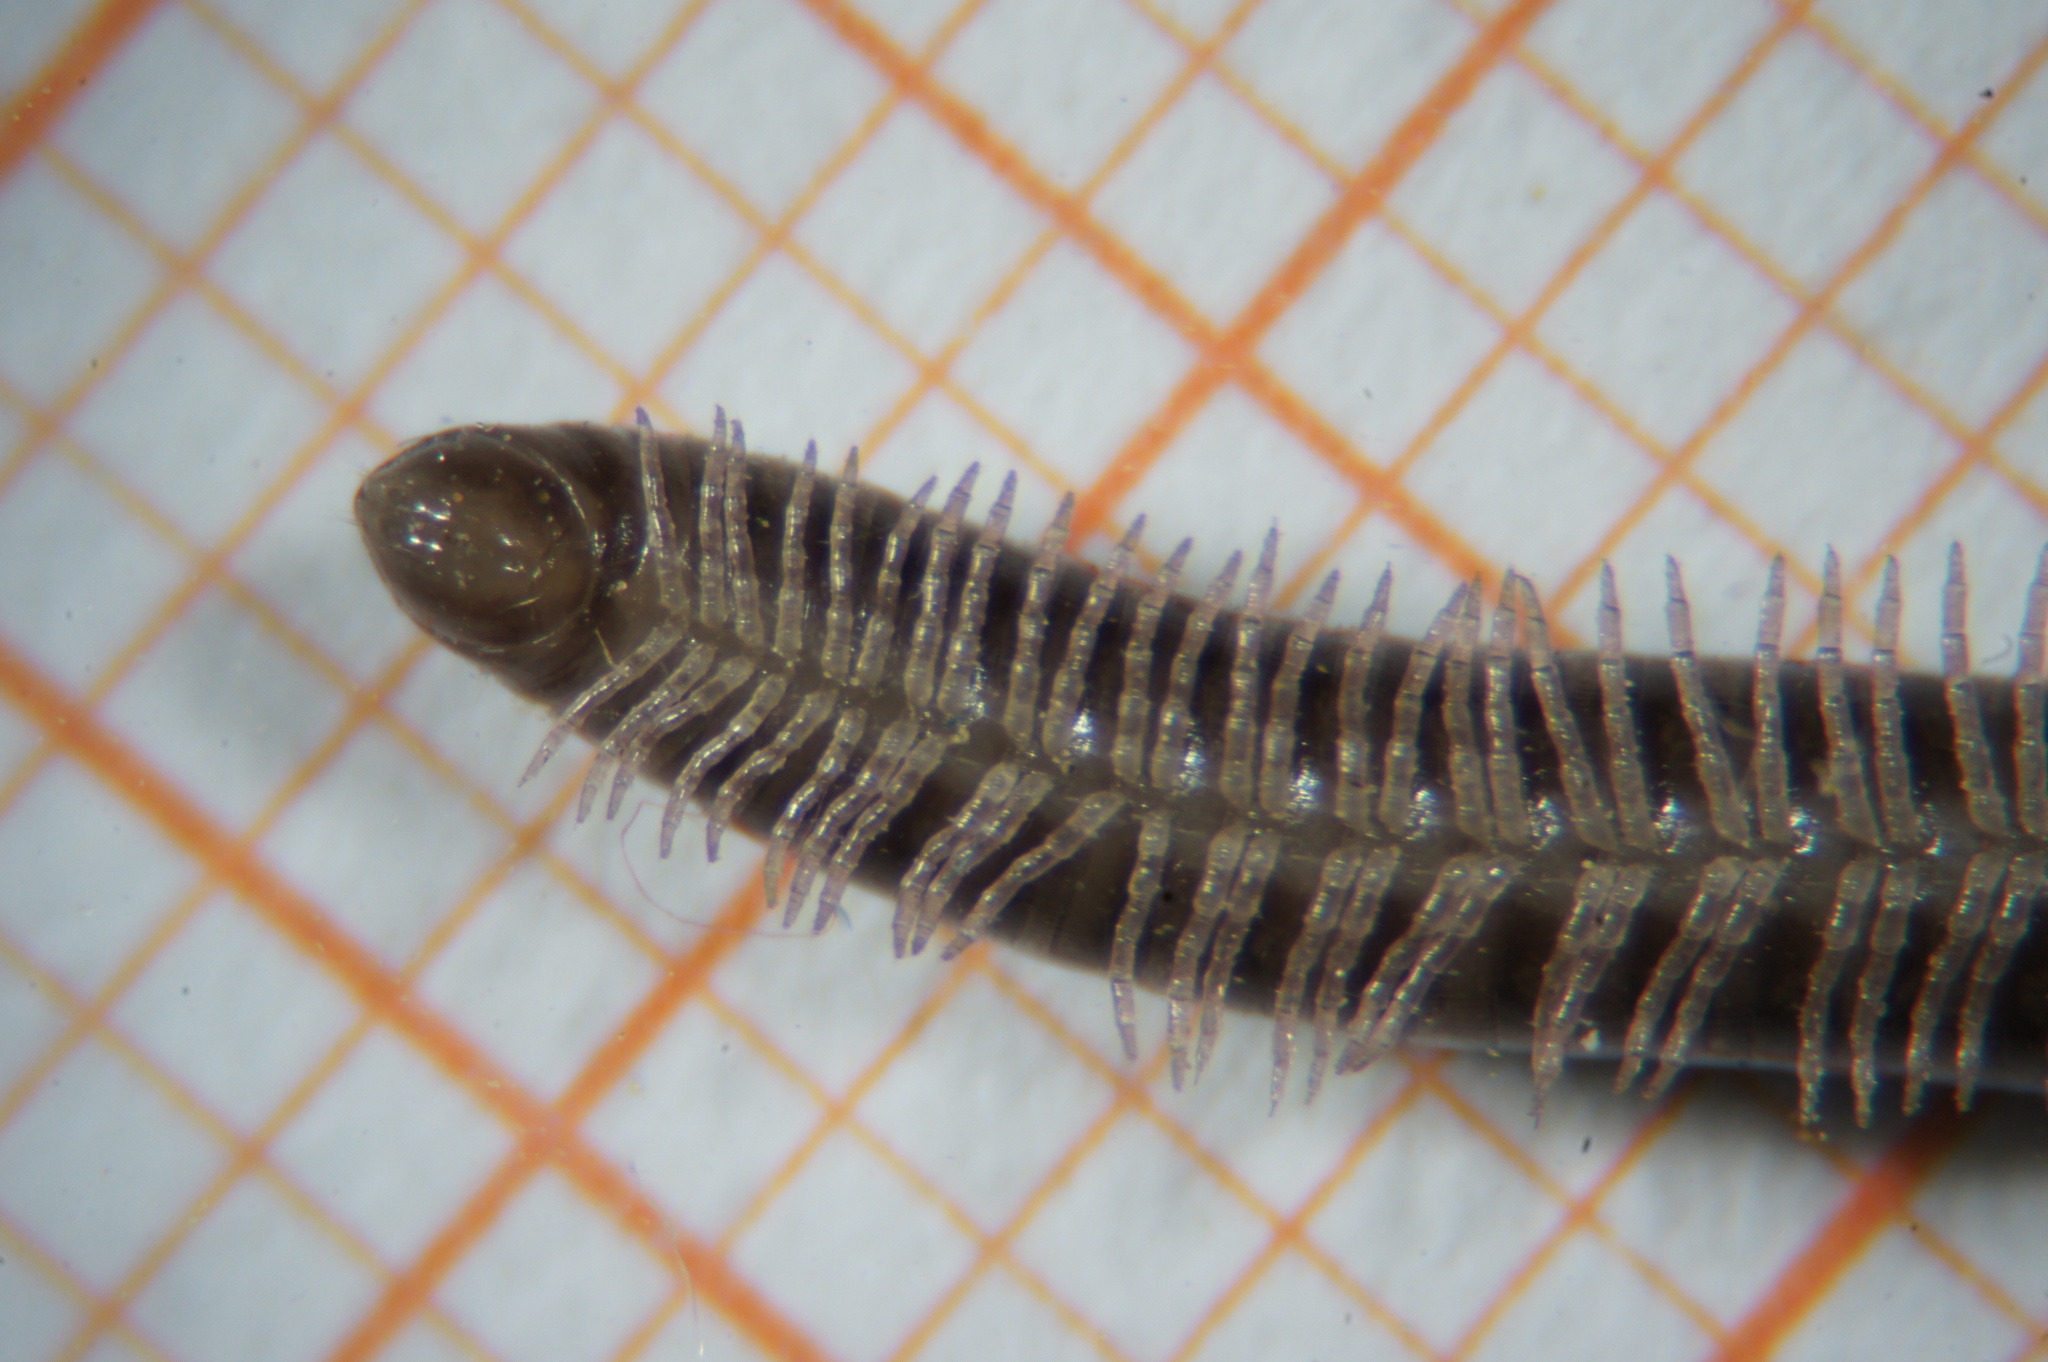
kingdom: Animalia
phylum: Arthropoda
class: Diplopoda
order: Julida
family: Julidae
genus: Cylindroiulus
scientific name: Cylindroiulus caeruleocinctus
